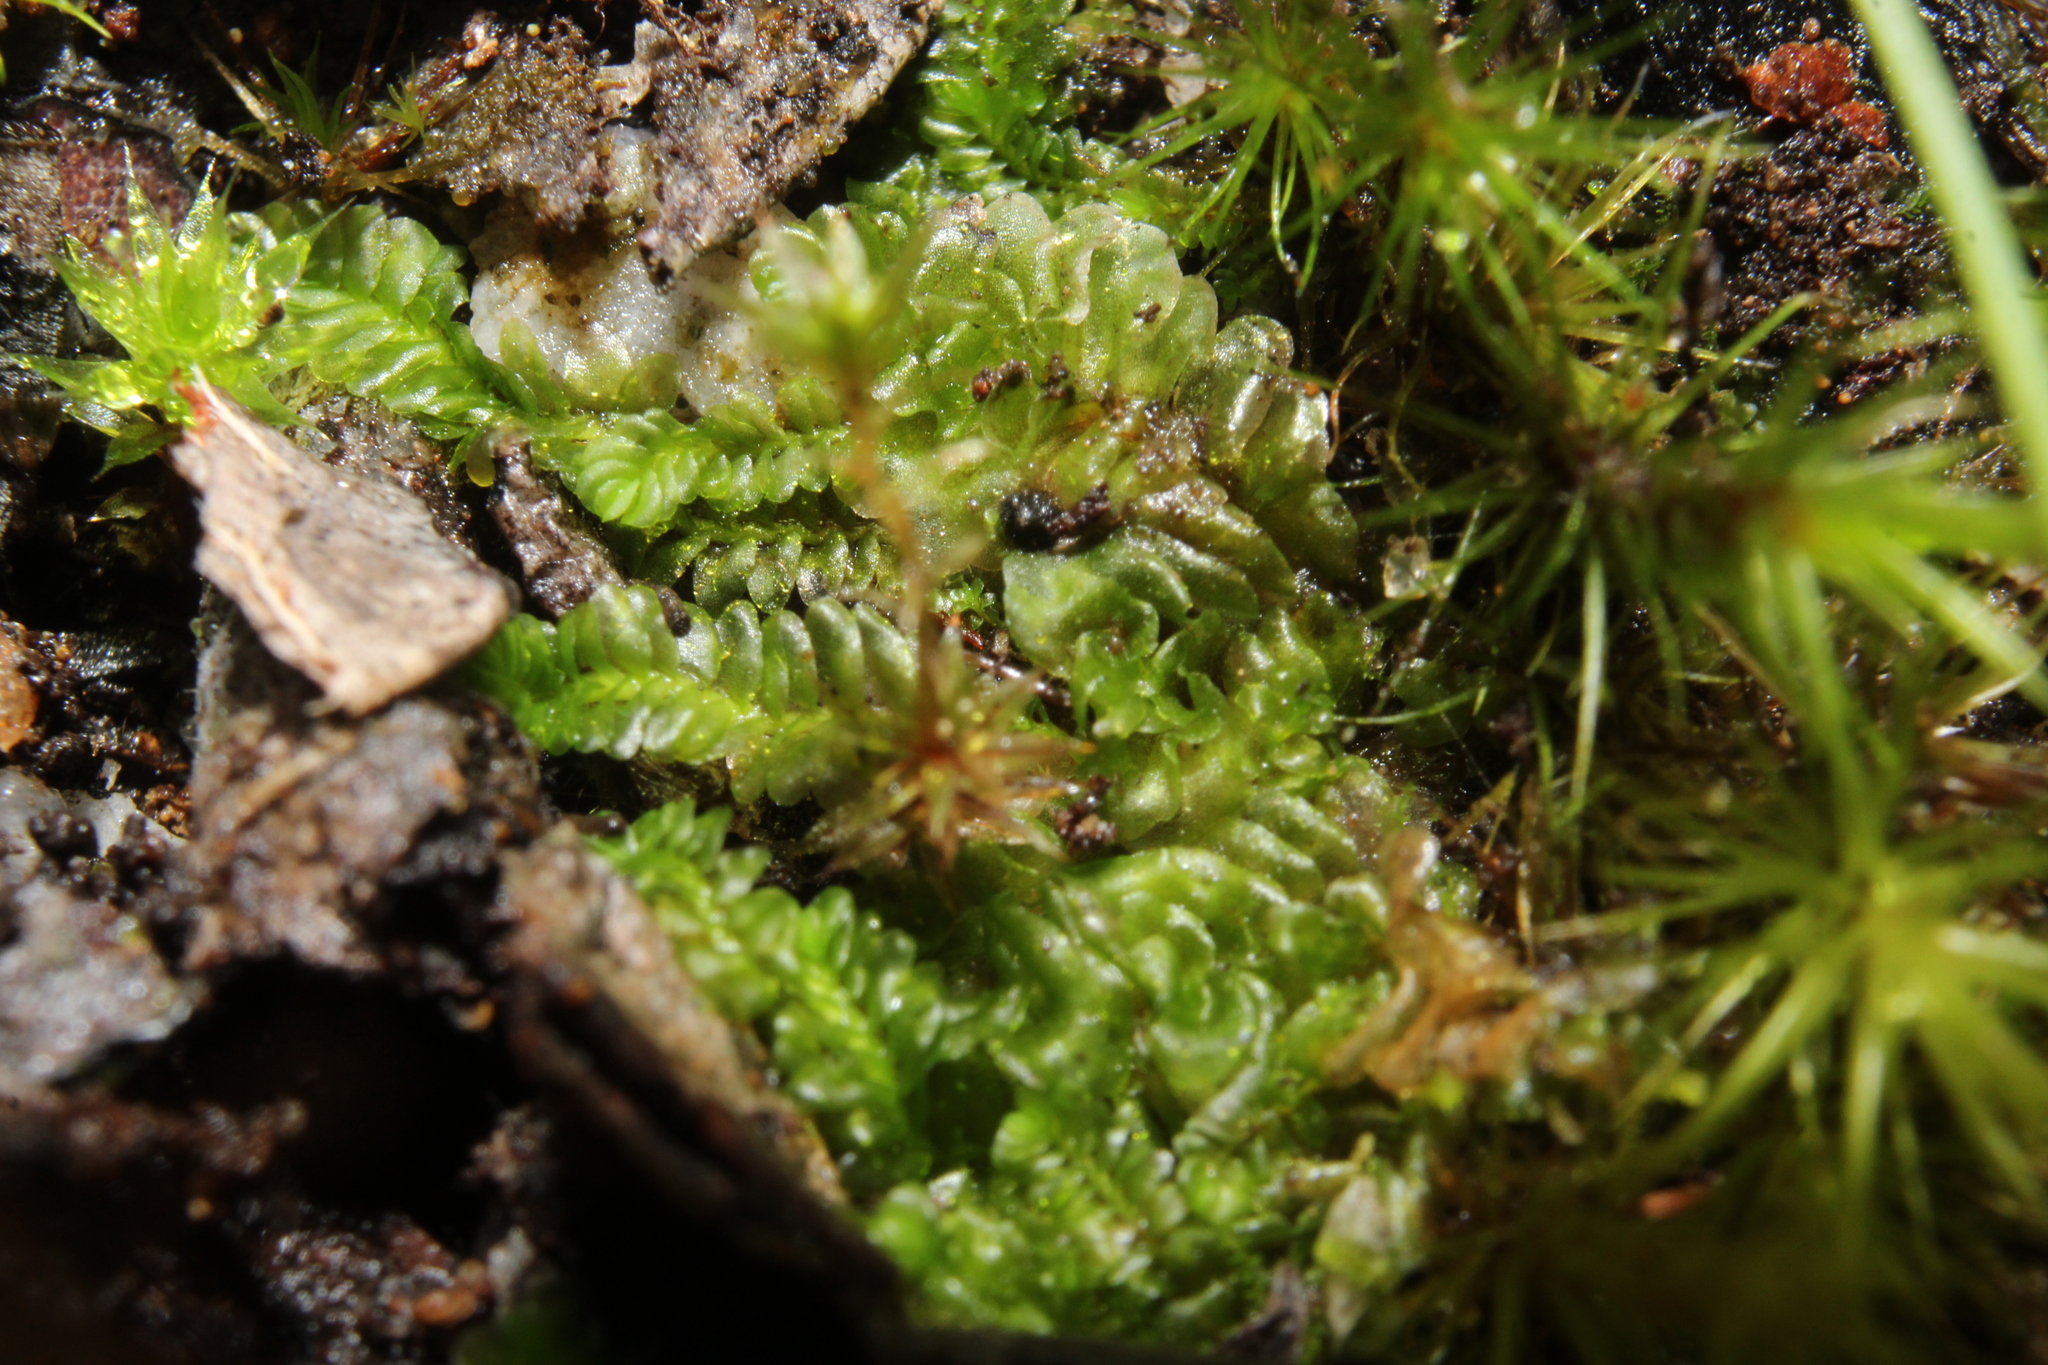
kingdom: Plantae
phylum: Marchantiophyta
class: Jungermanniopsida
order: Jungermanniales
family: Acrobolbaceae
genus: Lethocolea
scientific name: Lethocolea pansa
